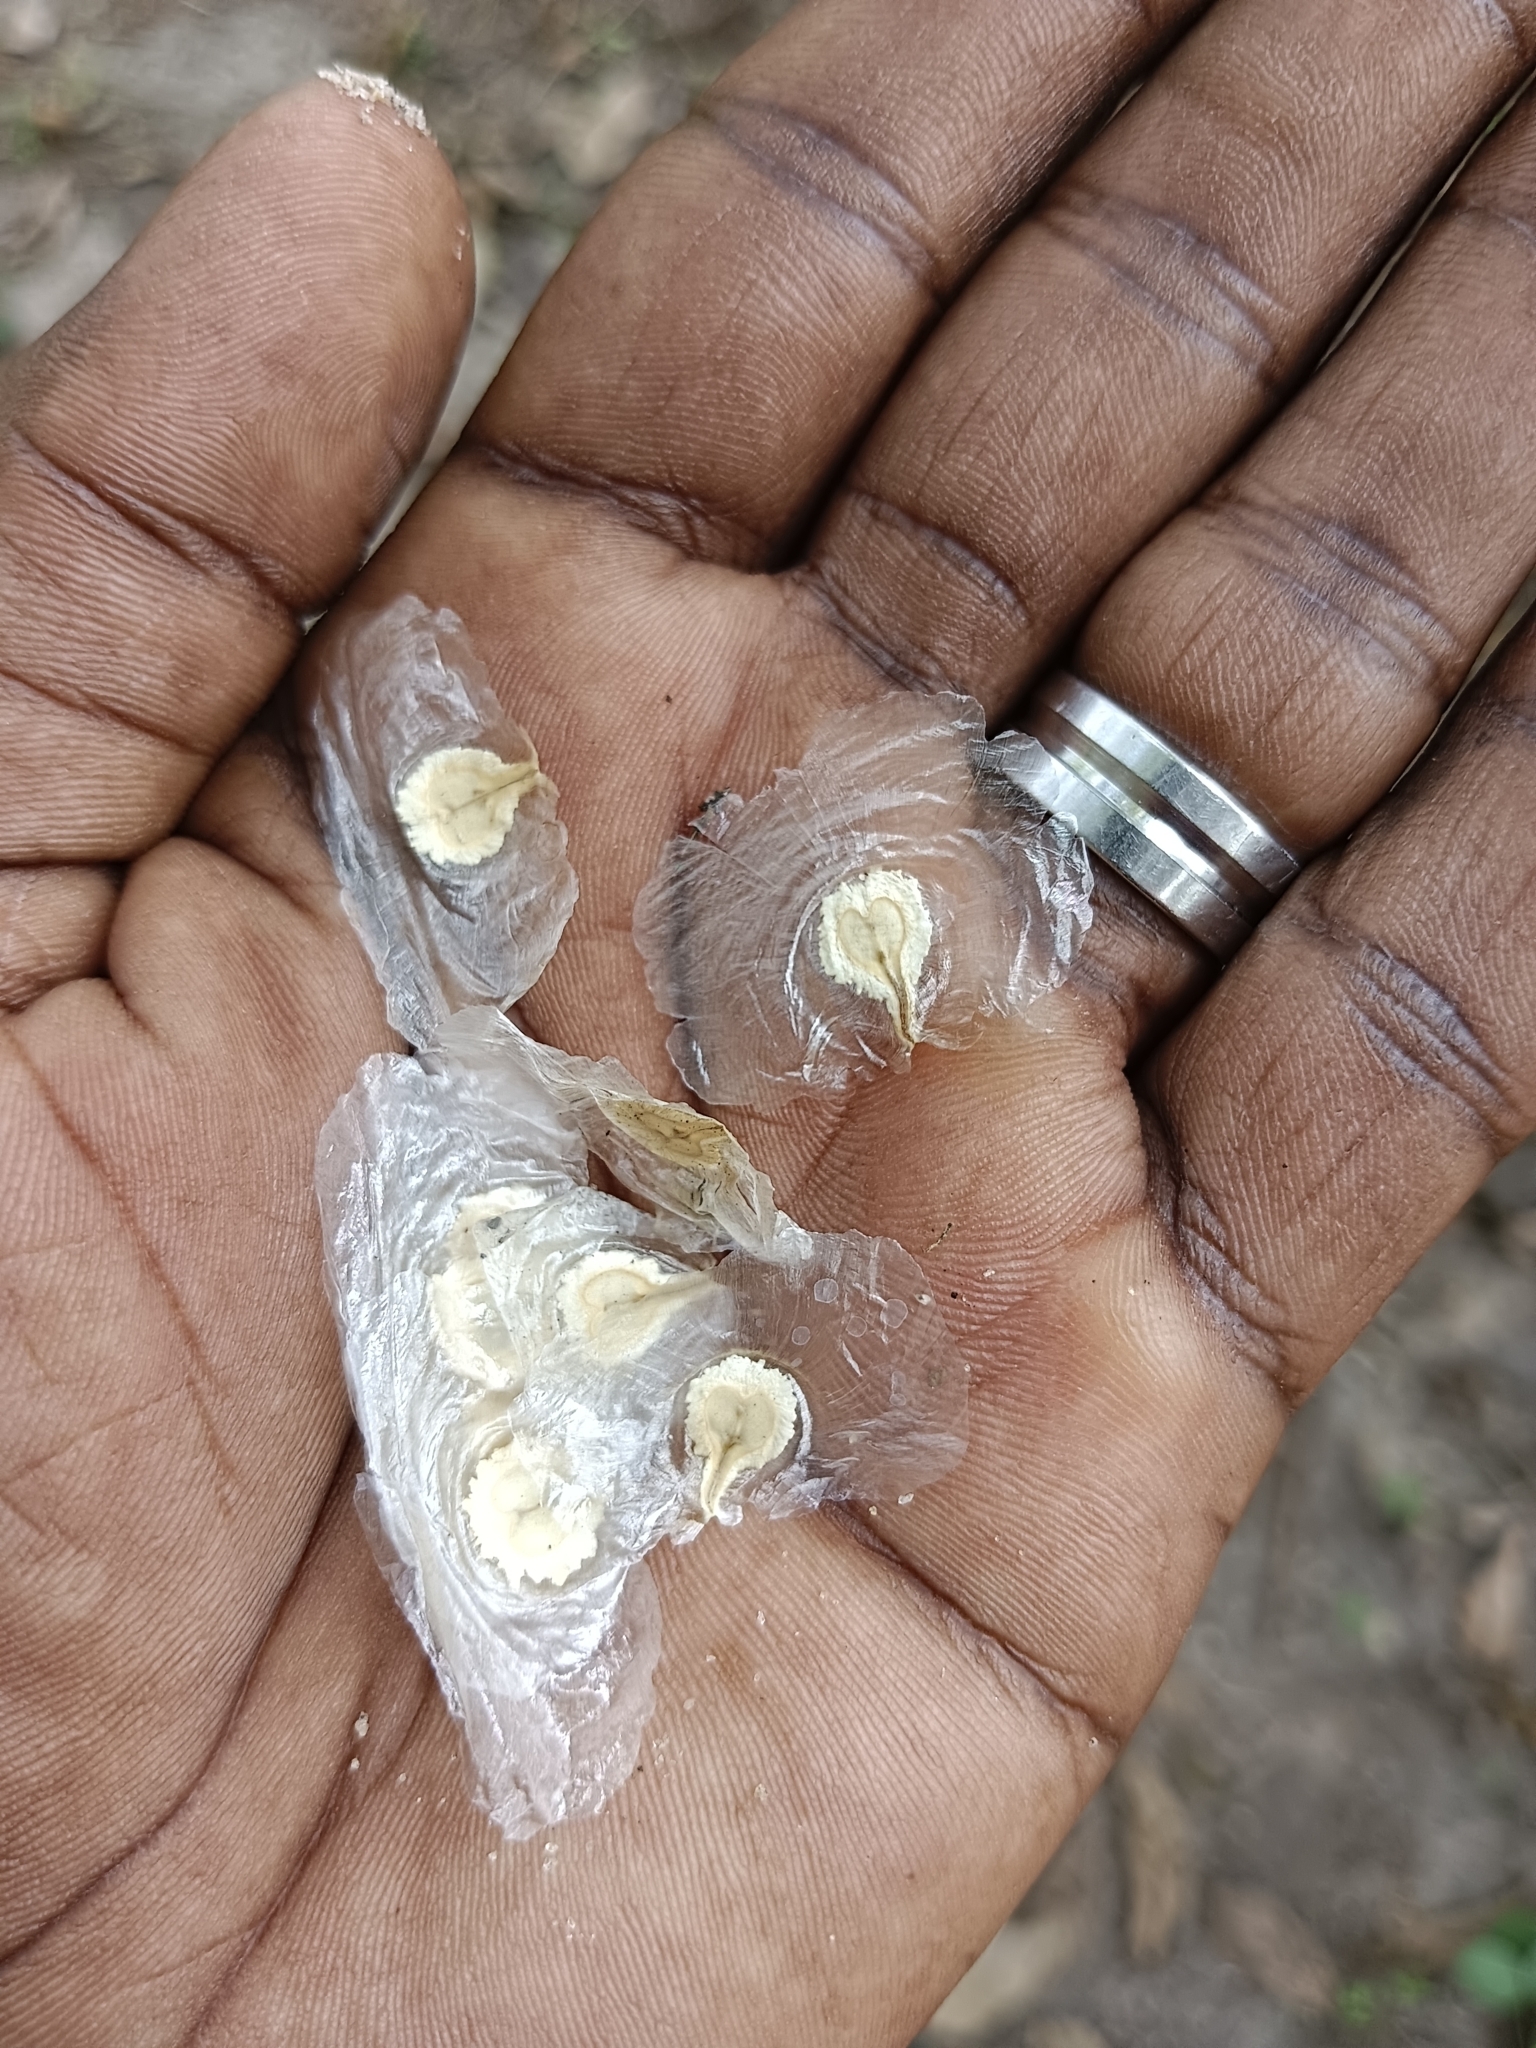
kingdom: Plantae
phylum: Tracheophyta
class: Magnoliopsida
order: Lamiales
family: Bignoniaceae
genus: Spathodea
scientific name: Spathodea campanulata
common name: African tuliptree
